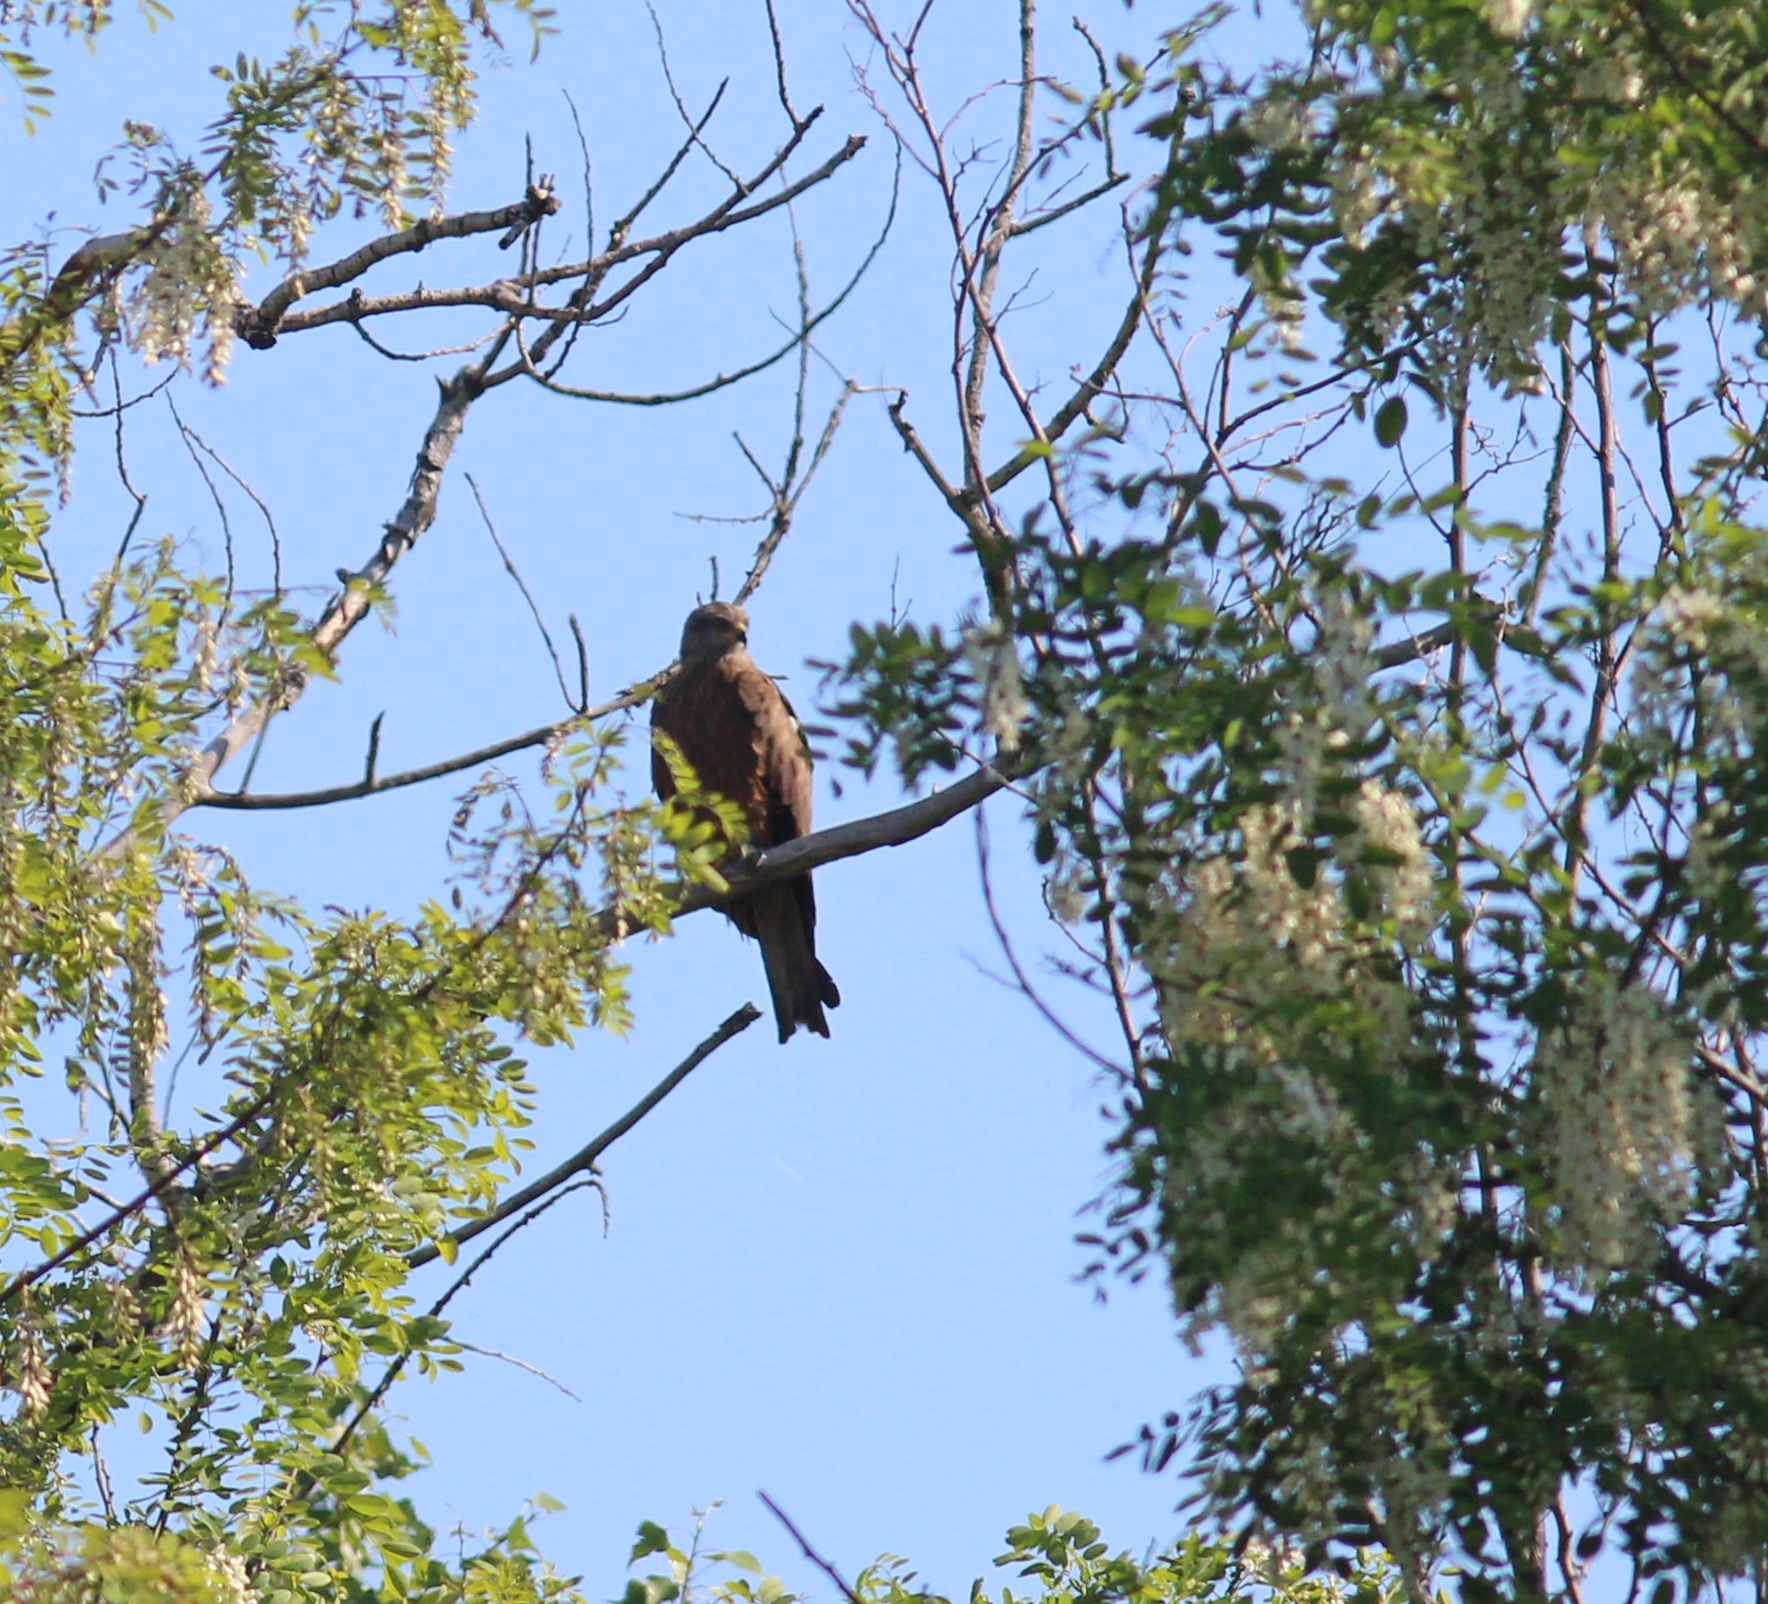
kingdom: Animalia
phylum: Chordata
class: Aves
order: Accipitriformes
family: Accipitridae
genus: Milvus
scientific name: Milvus migrans
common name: Black kite
